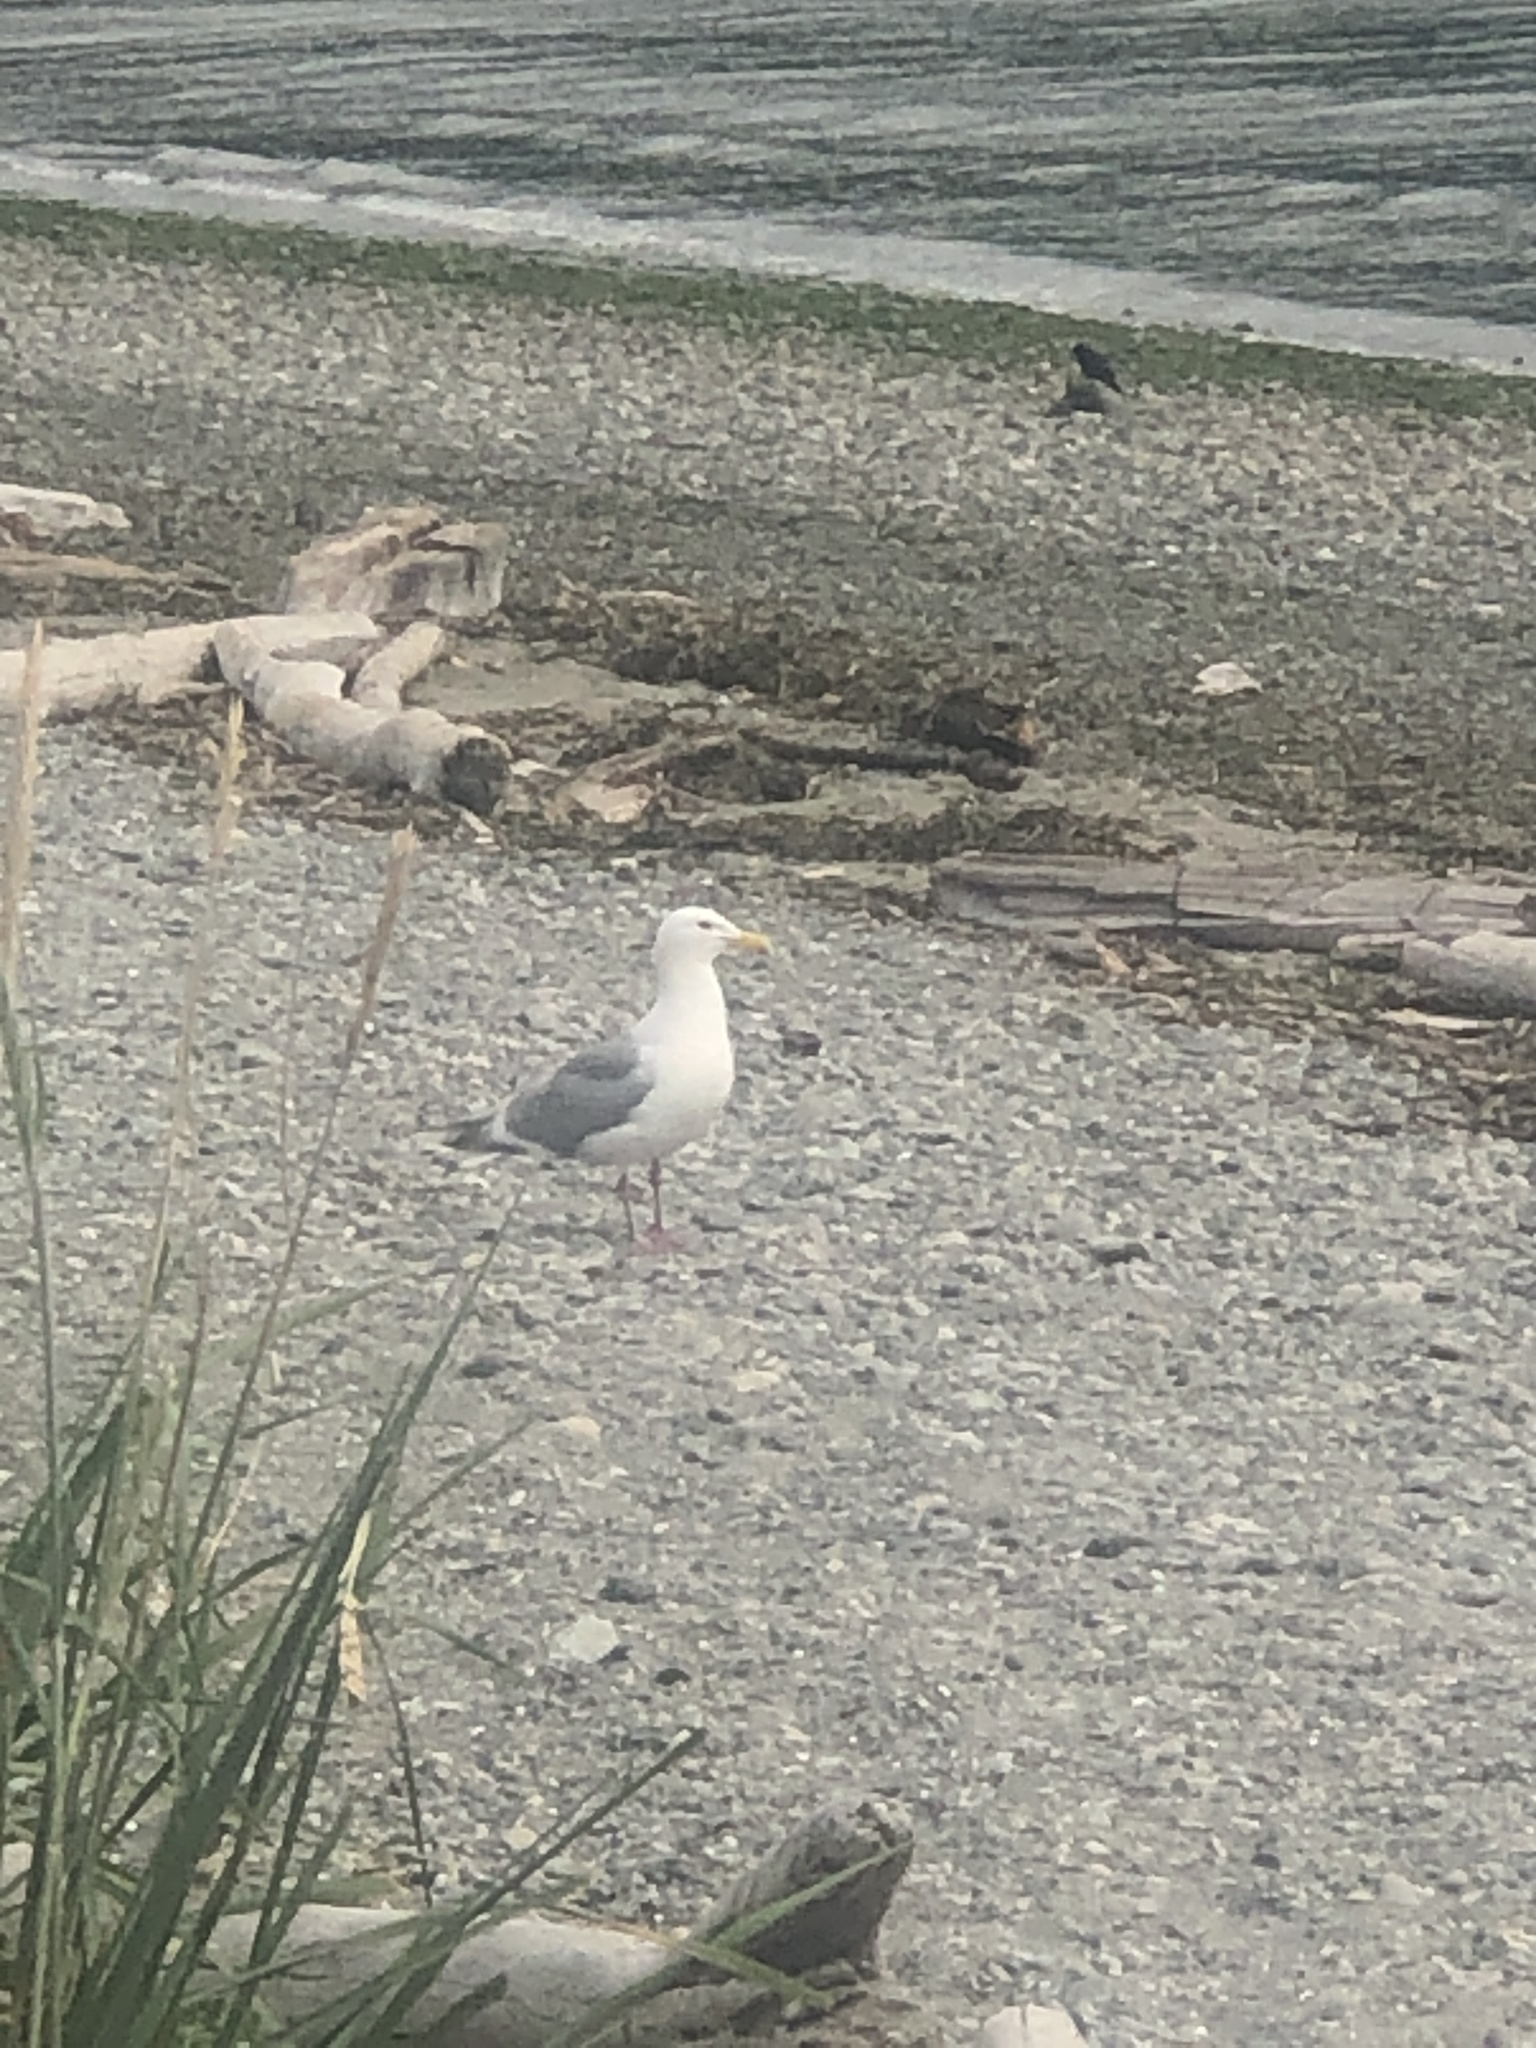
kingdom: Animalia
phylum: Chordata
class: Aves
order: Charadriiformes
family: Laridae
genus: Larus
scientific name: Larus glaucescens
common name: Glaucous-winged gull
